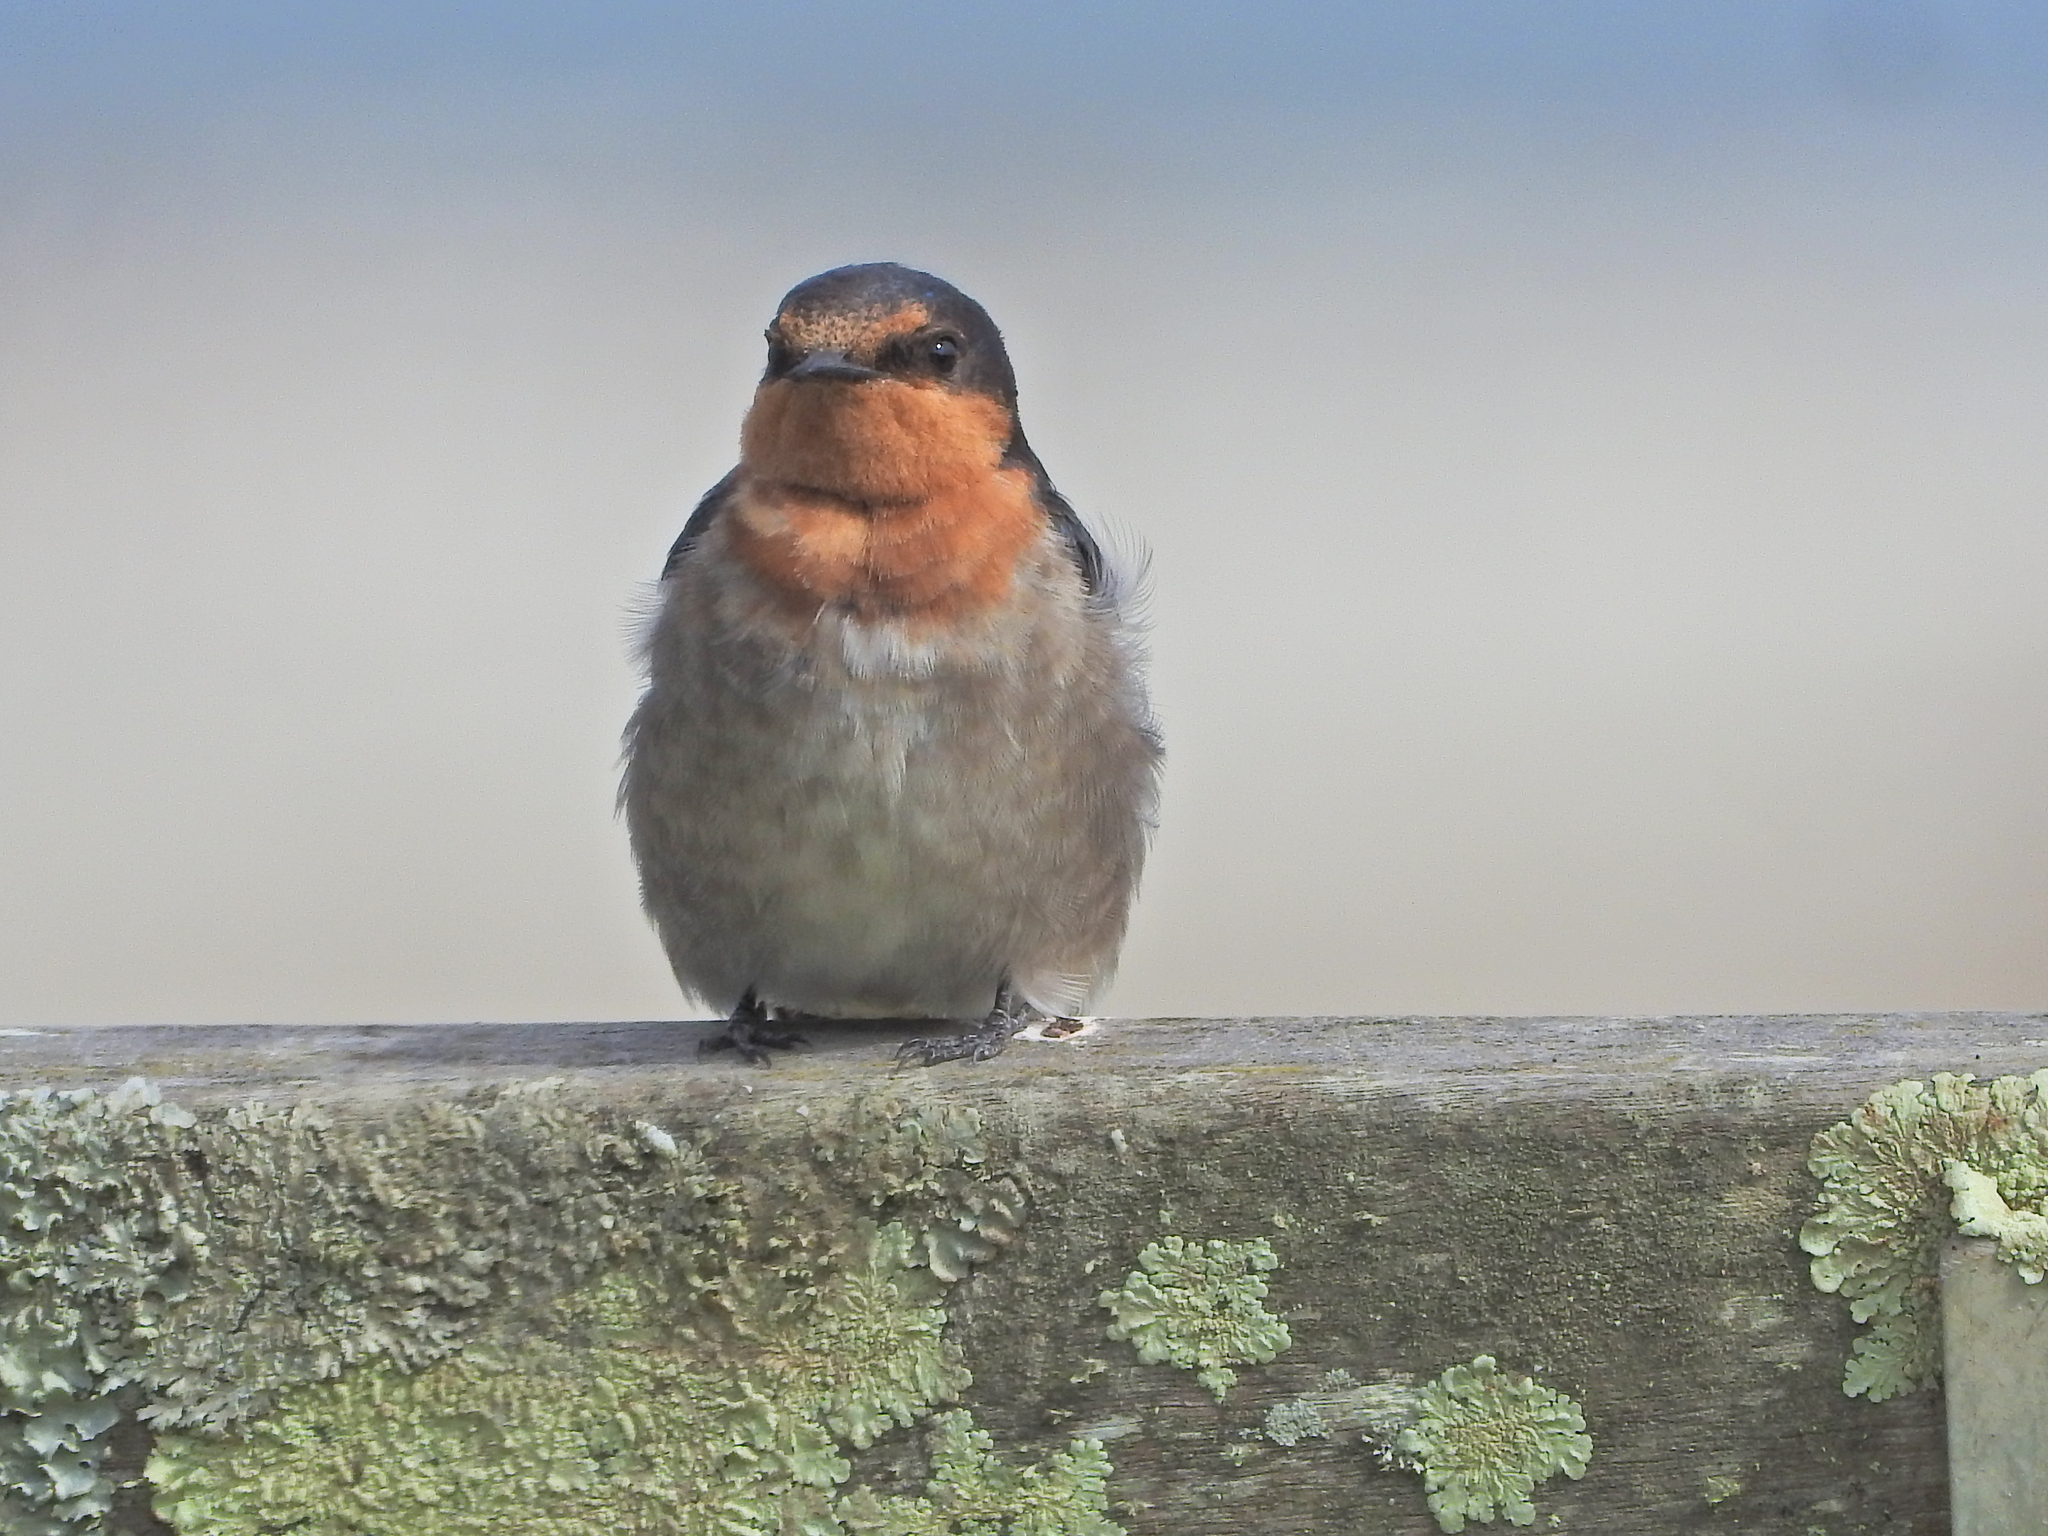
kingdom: Animalia
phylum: Chordata
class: Aves
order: Passeriformes
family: Hirundinidae
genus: Hirundo
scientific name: Hirundo neoxena
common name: Welcome swallow
